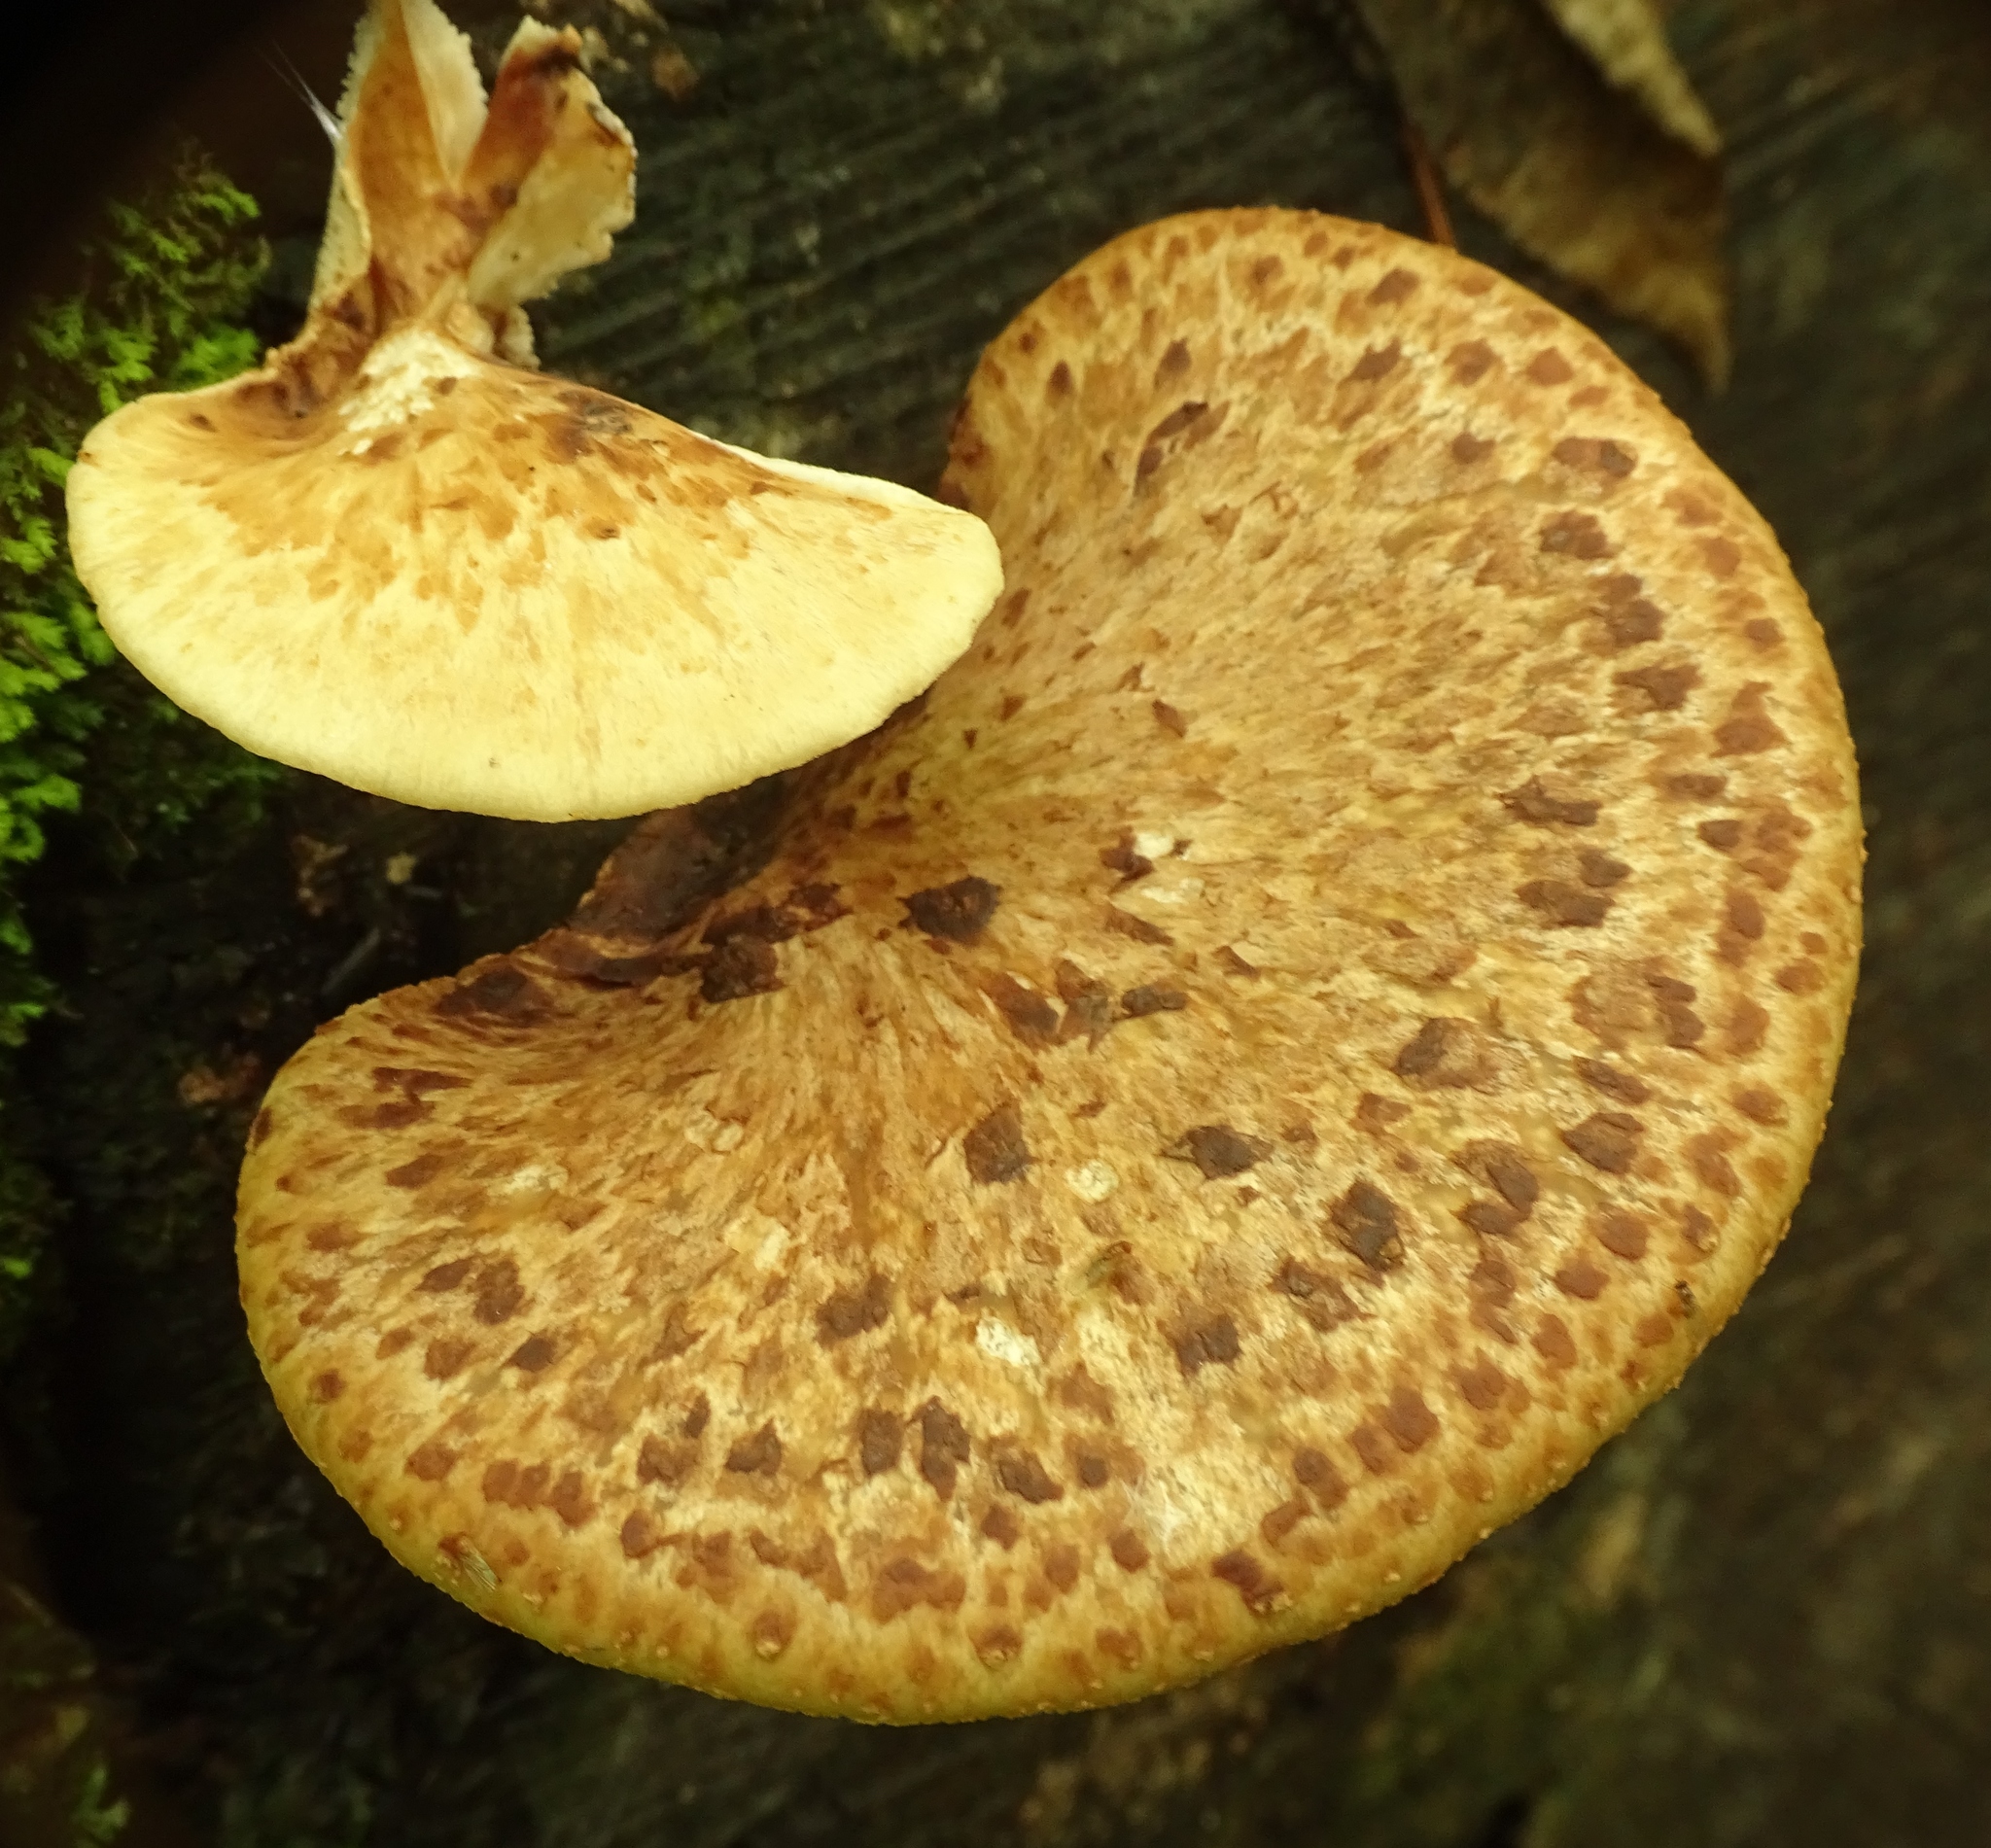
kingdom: Fungi
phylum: Basidiomycota
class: Agaricomycetes
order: Polyporales
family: Polyporaceae
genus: Cerioporus
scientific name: Cerioporus squamosus
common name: Dryad's saddle
